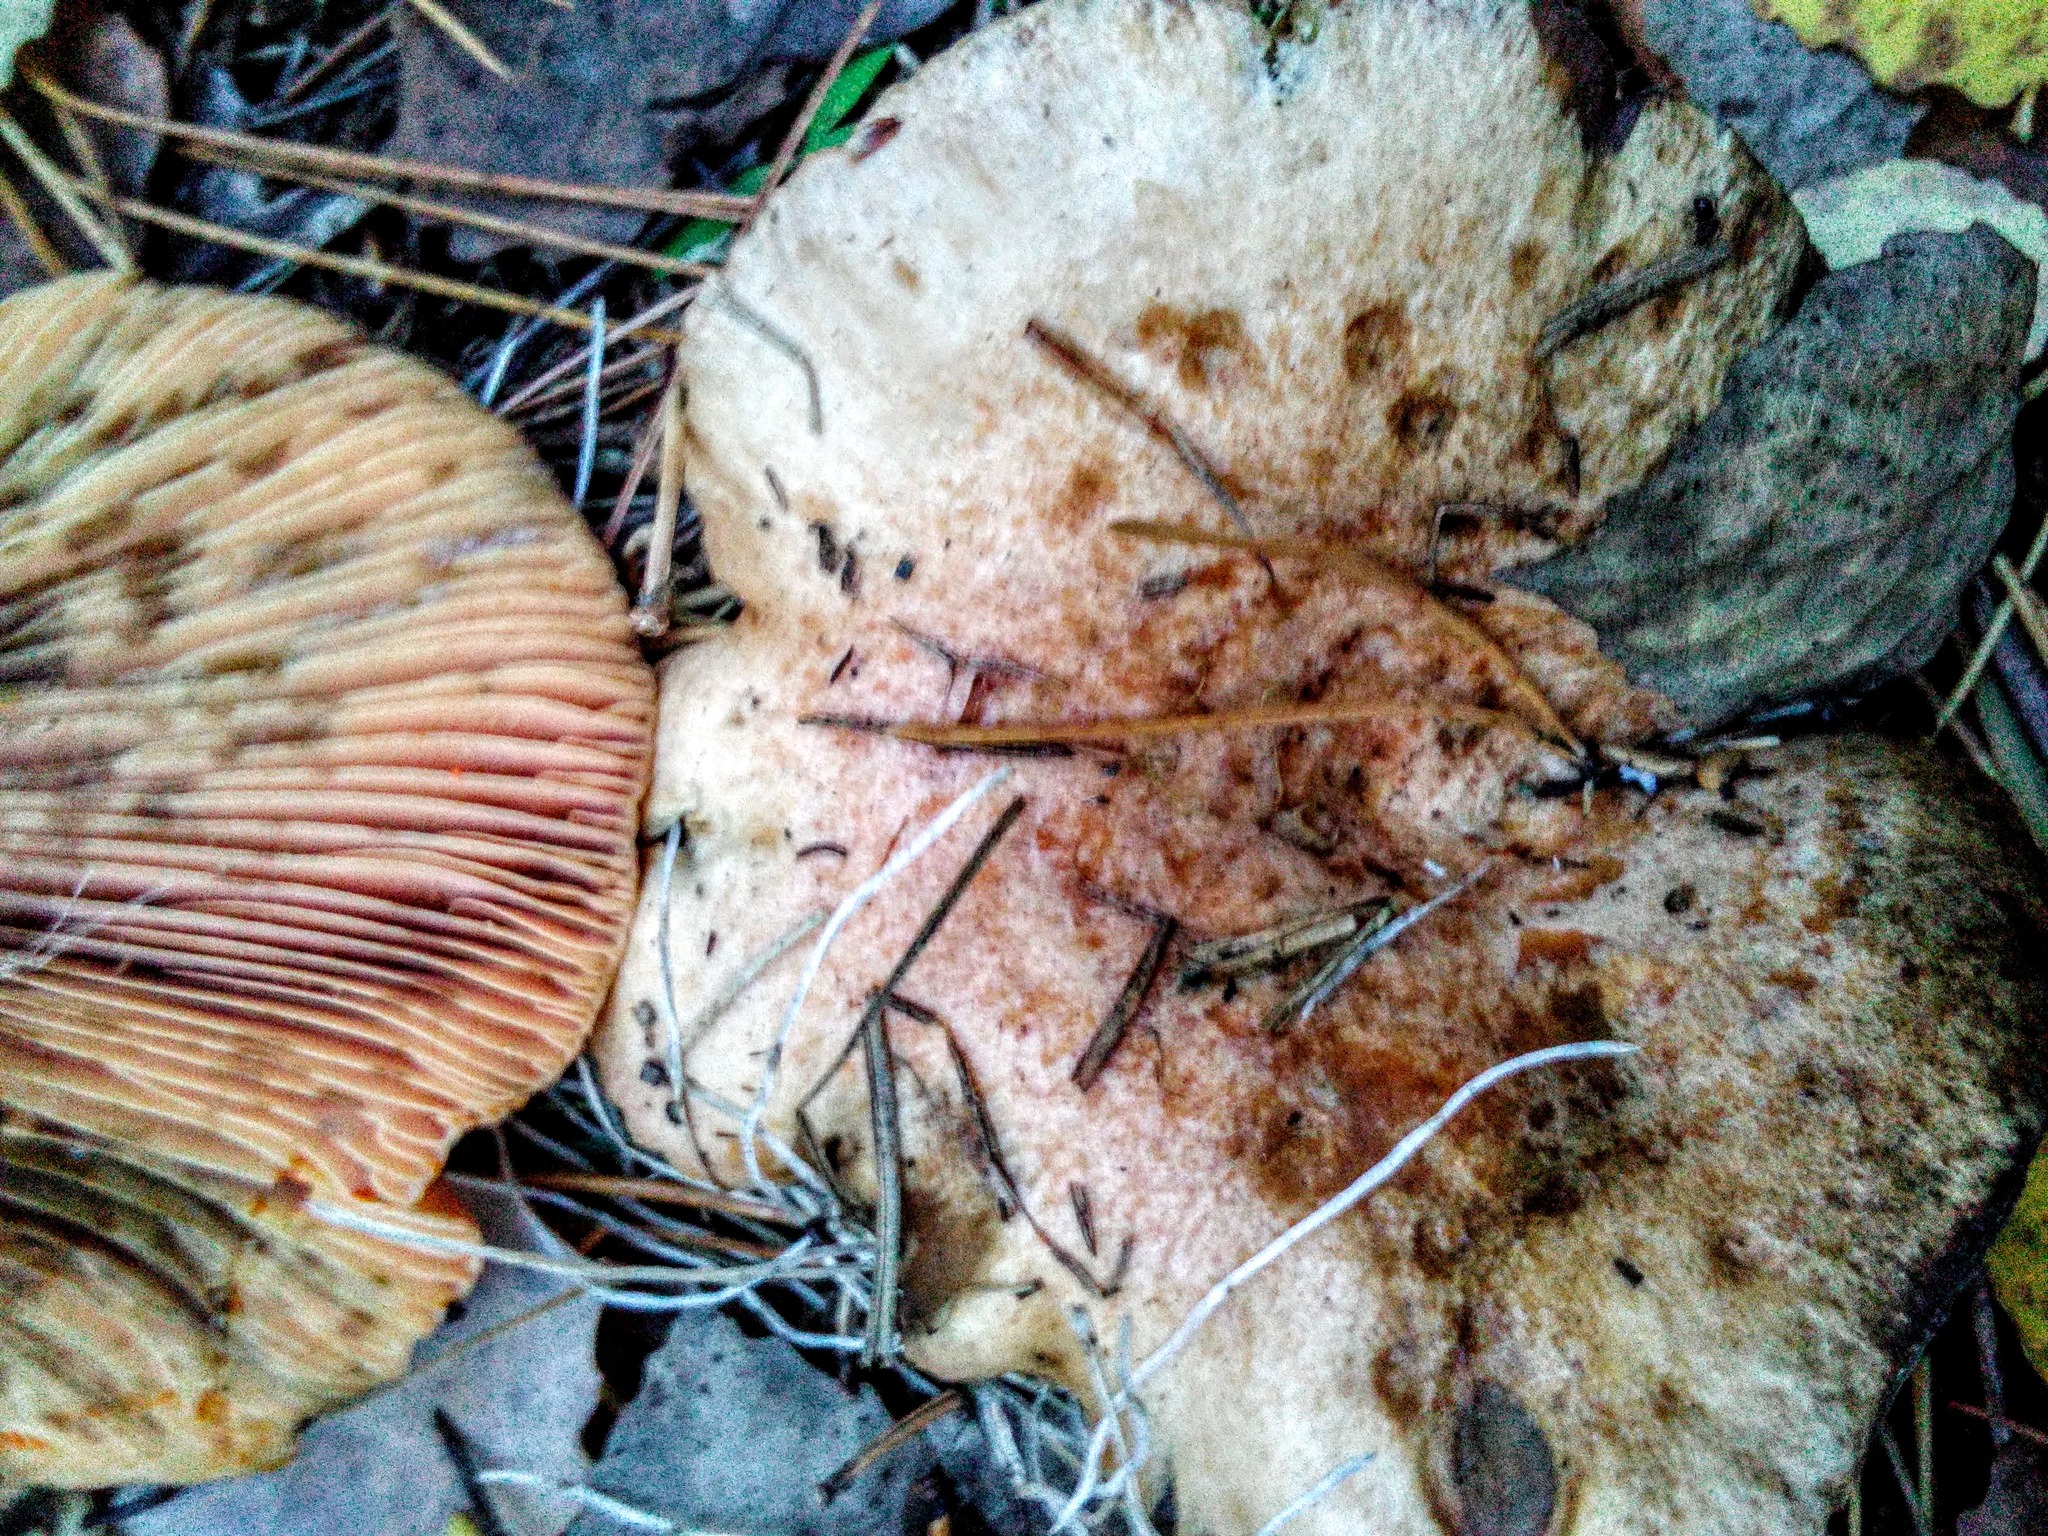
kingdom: Fungi
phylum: Basidiomycota
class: Agaricomycetes
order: Russulales
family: Russulaceae
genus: Lactarius
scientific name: Lactarius deterrimus
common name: False saffron milkcap
